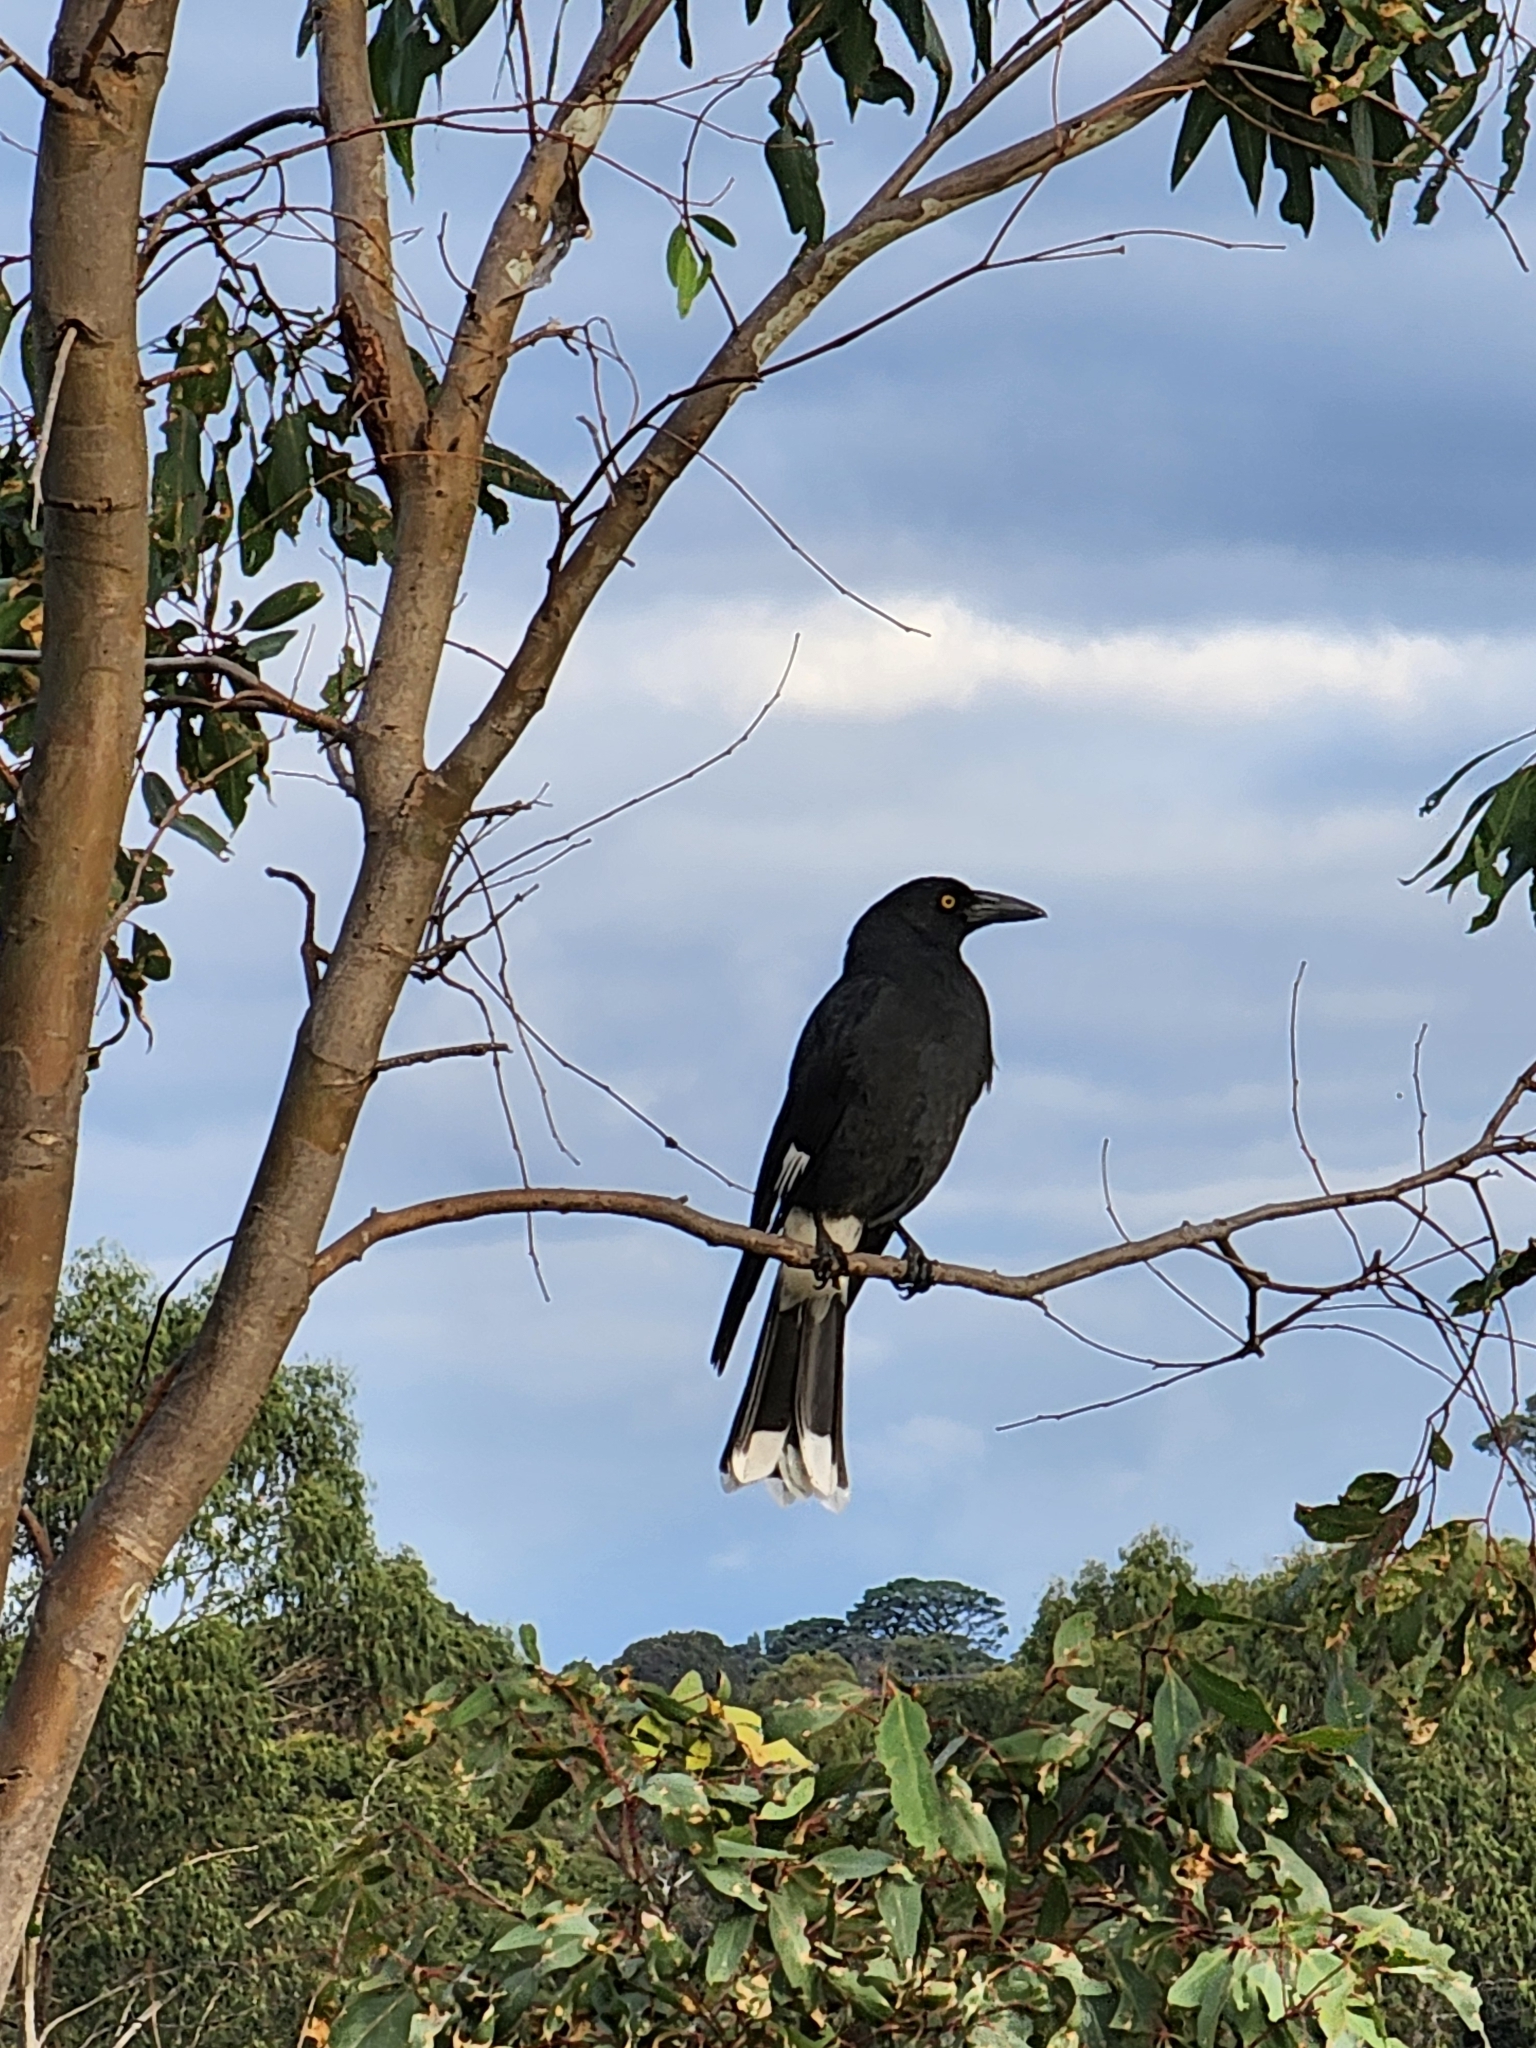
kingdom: Animalia
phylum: Chordata
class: Aves
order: Passeriformes
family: Cracticidae
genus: Strepera
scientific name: Strepera graculina
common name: Pied currawong
